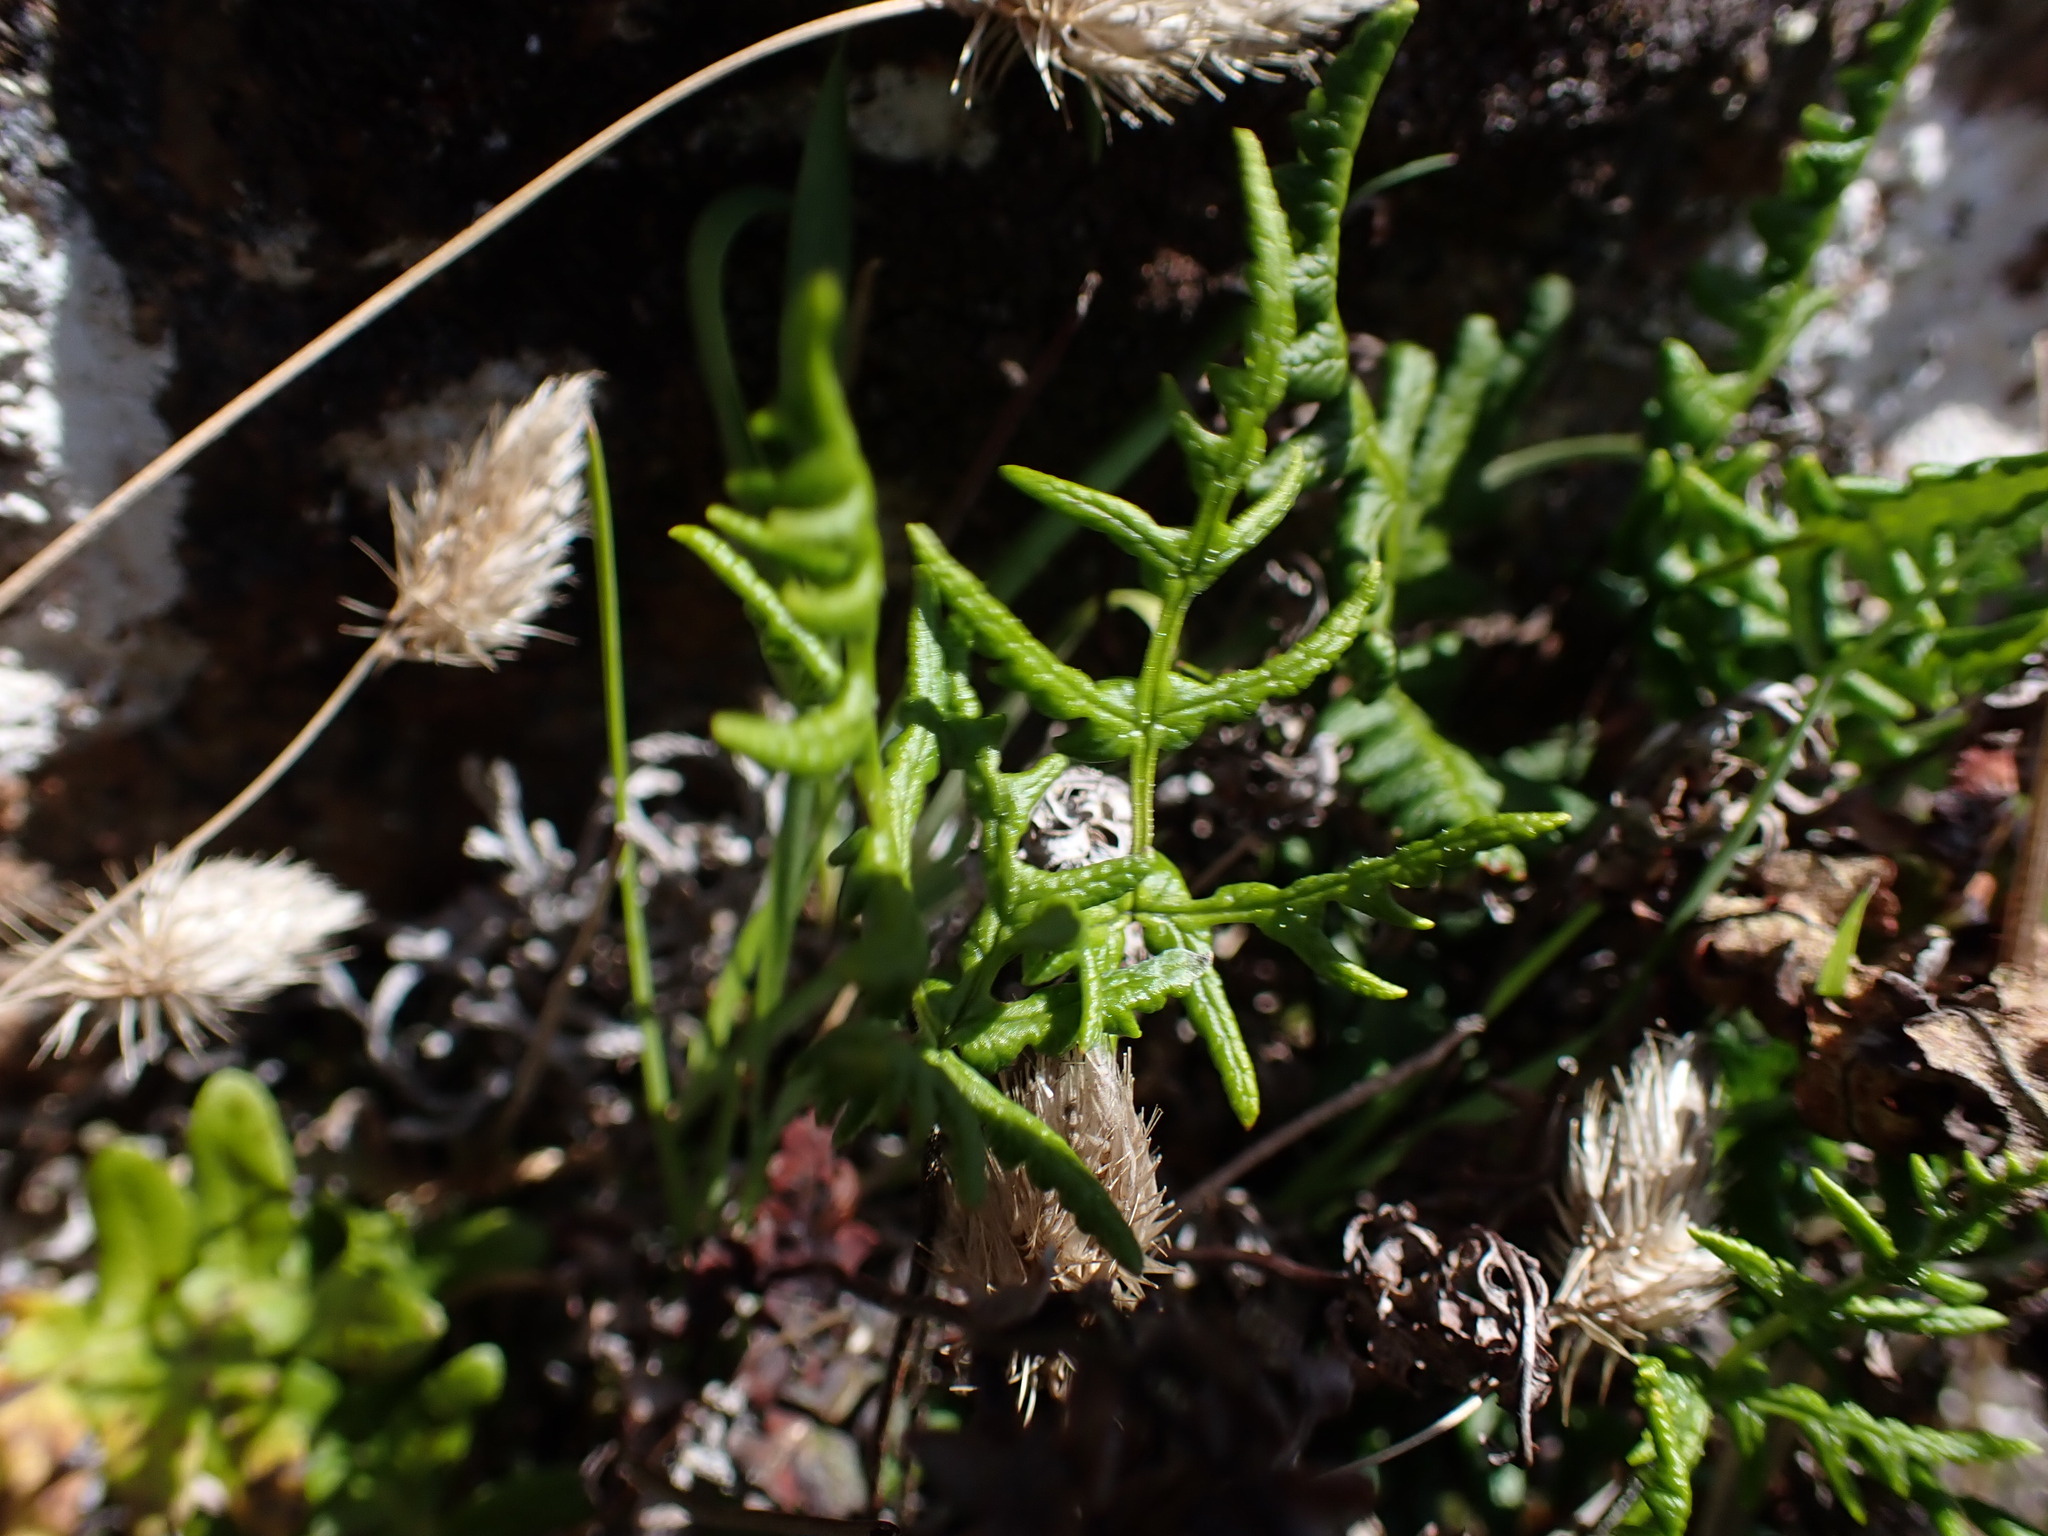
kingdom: Plantae
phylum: Tracheophyta
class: Polypodiopsida
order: Polypodiales
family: Pteridaceae
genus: Pentagramma
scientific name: Pentagramma triangularis
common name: Gold fern
